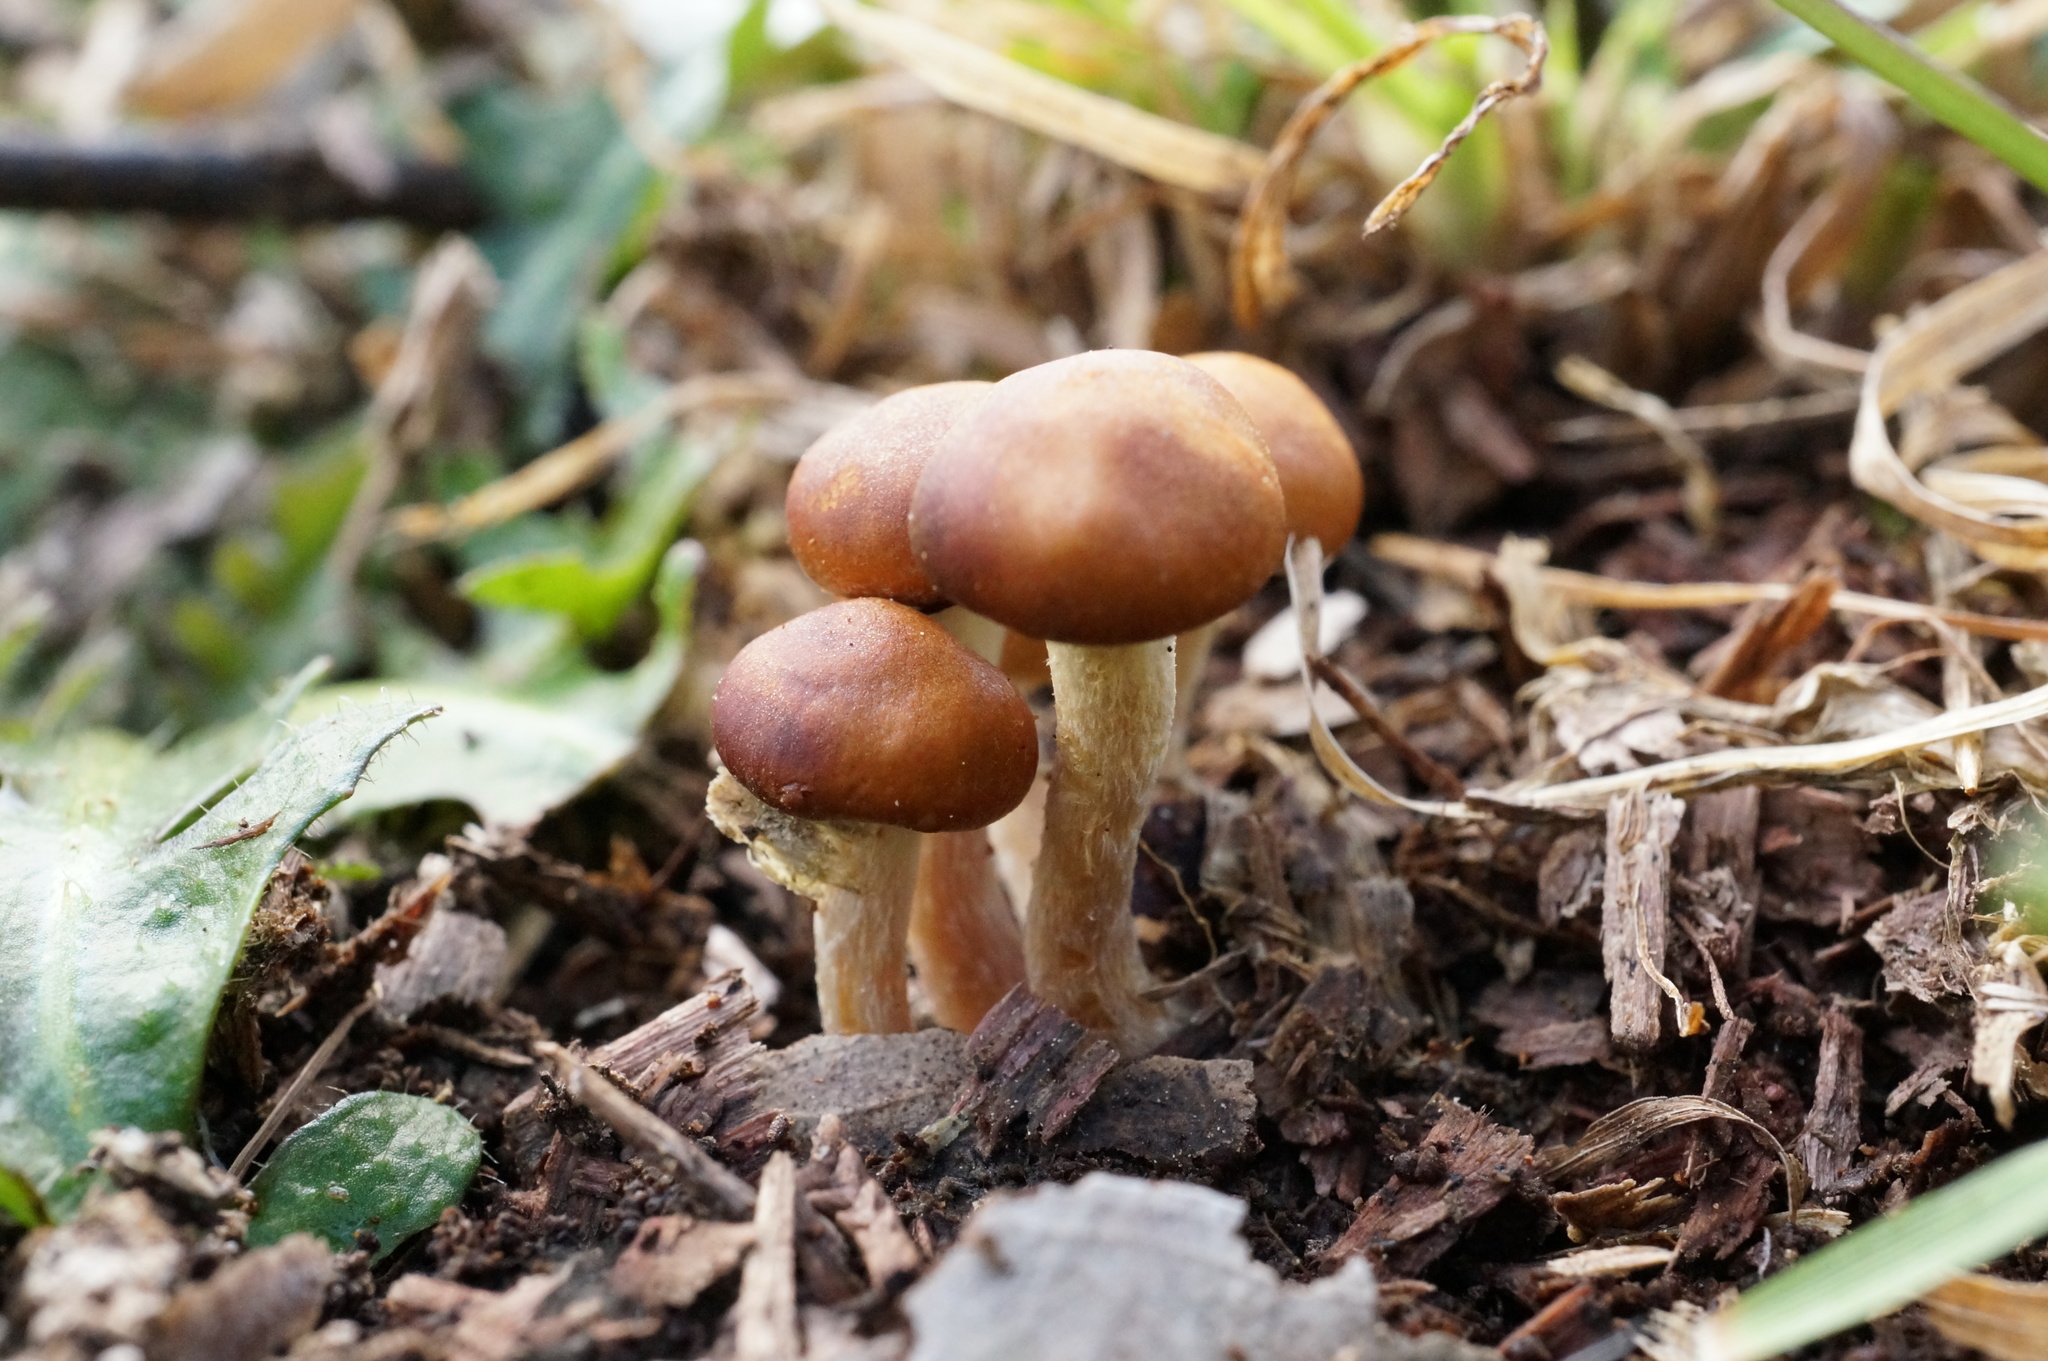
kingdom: Fungi
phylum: Basidiomycota
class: Agaricomycetes
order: Agaricales
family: Strophariaceae
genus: Leratiomyces
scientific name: Leratiomyces ceres
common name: Redlead roundhead
